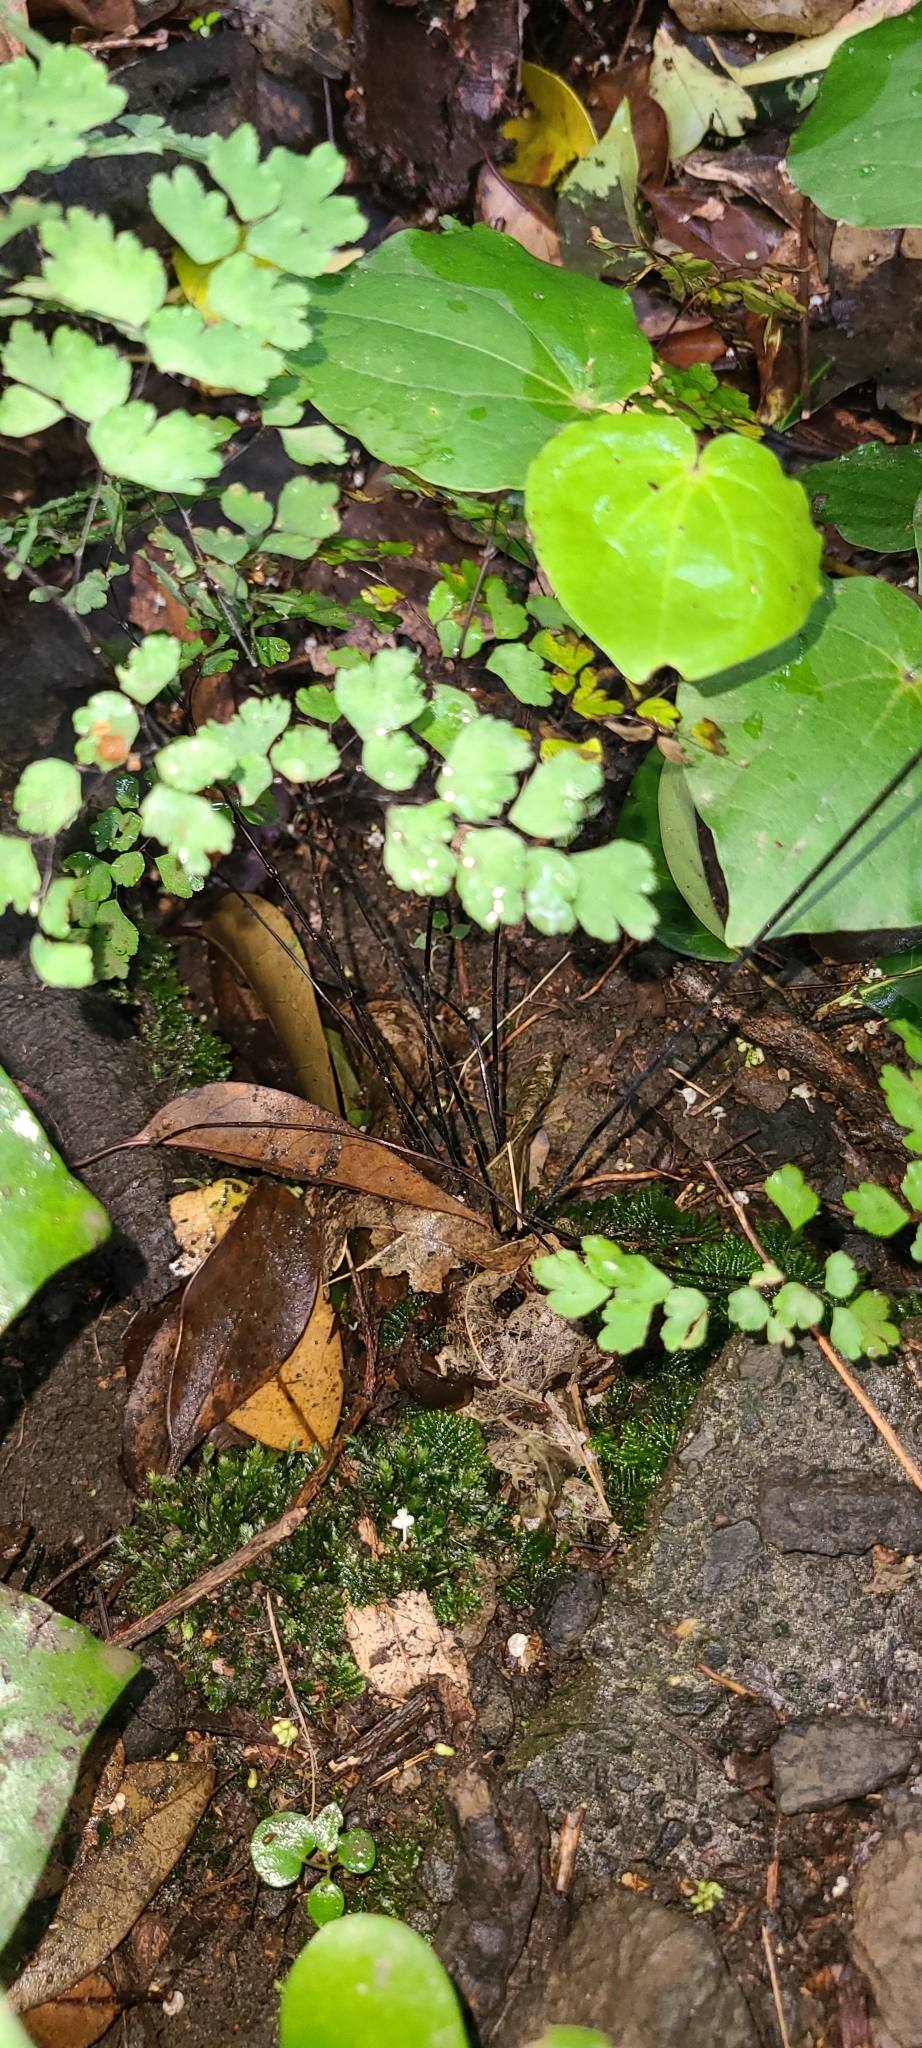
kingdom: Plantae
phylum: Tracheophyta
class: Polypodiopsida
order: Polypodiales
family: Pteridaceae
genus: Adiantum
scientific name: Adiantum raddianum
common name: Delta maidenhair fern
